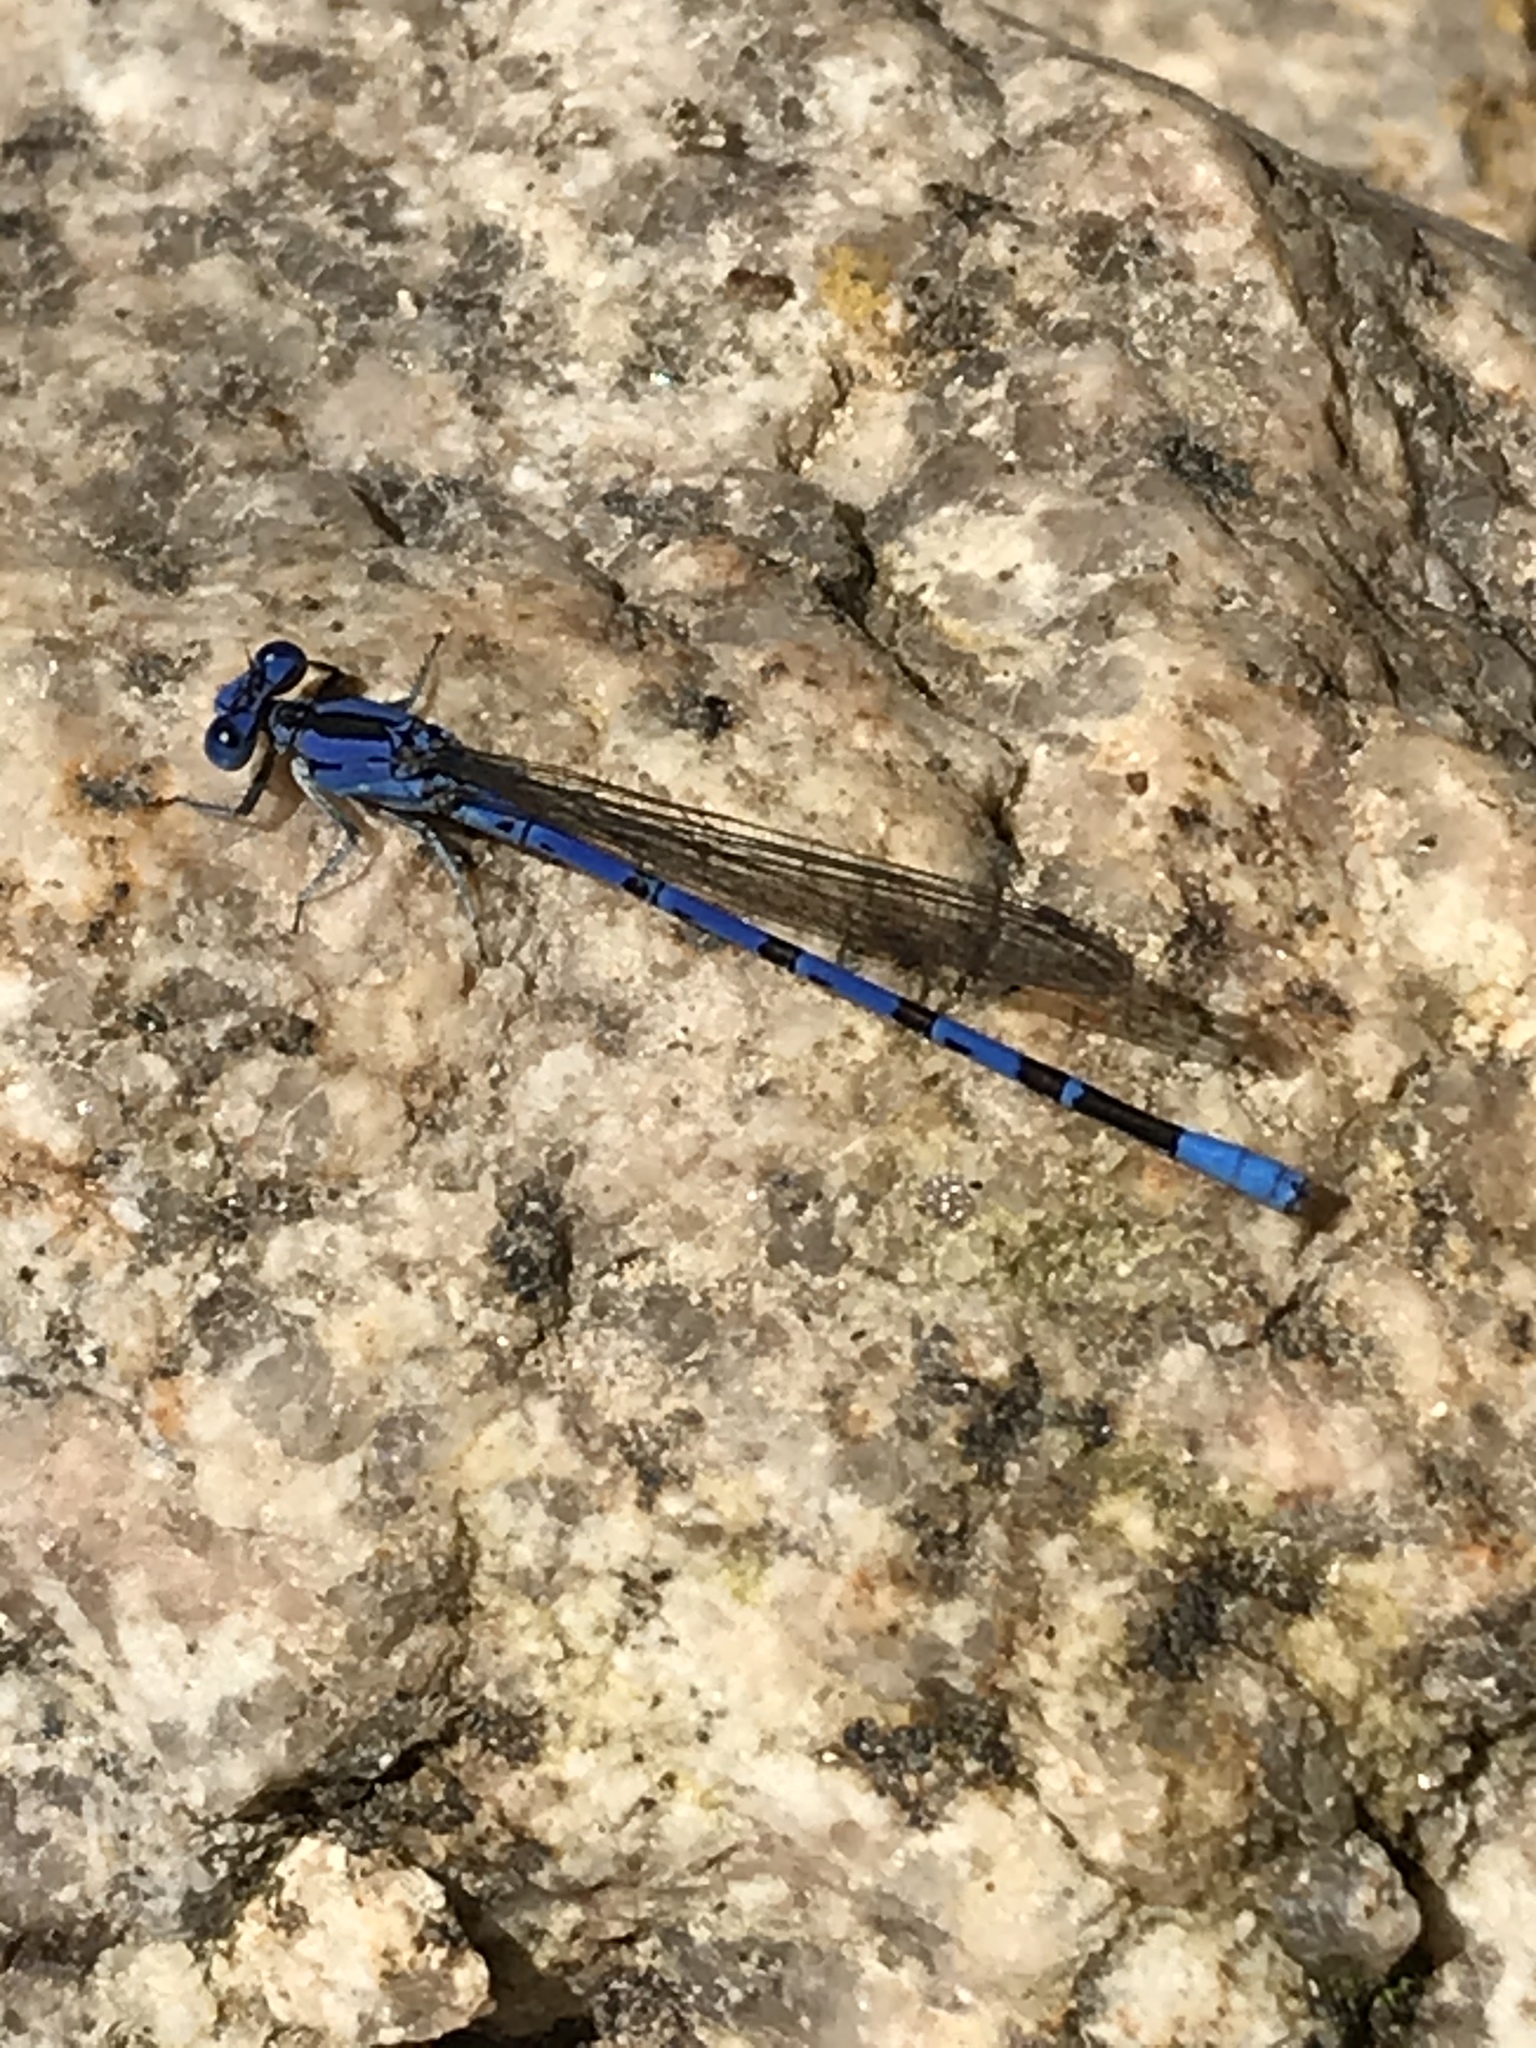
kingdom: Animalia
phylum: Arthropoda
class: Insecta
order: Odonata
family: Coenagrionidae
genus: Argia
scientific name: Argia vivida
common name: Vivid dancer
